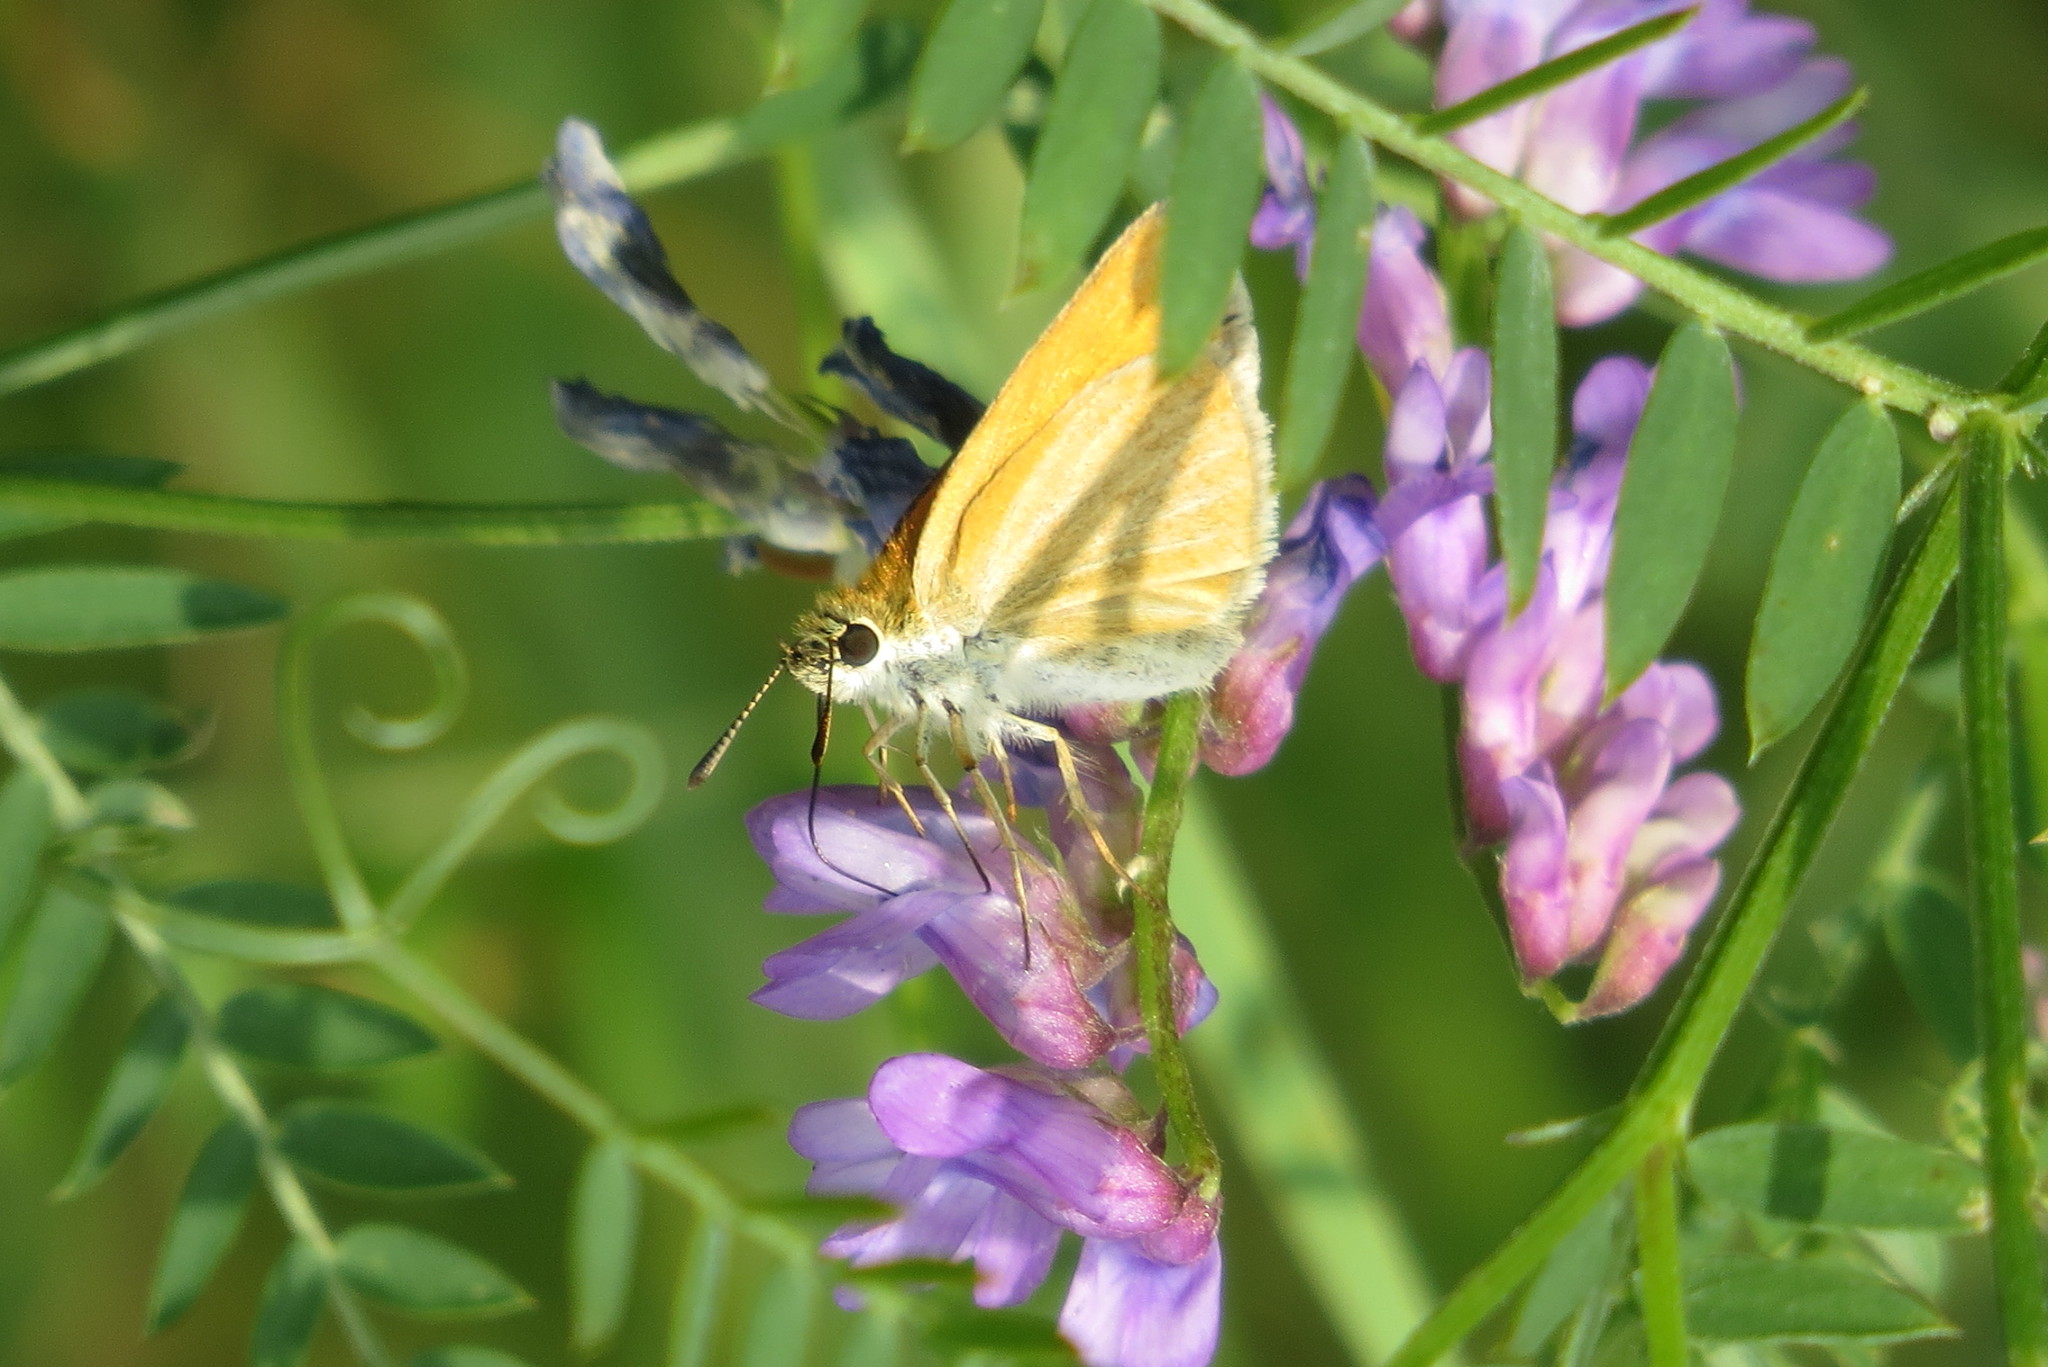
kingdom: Animalia
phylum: Arthropoda
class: Insecta
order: Lepidoptera
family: Hesperiidae
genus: Thymelicus
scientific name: Thymelicus lineola
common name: Essex skipper
